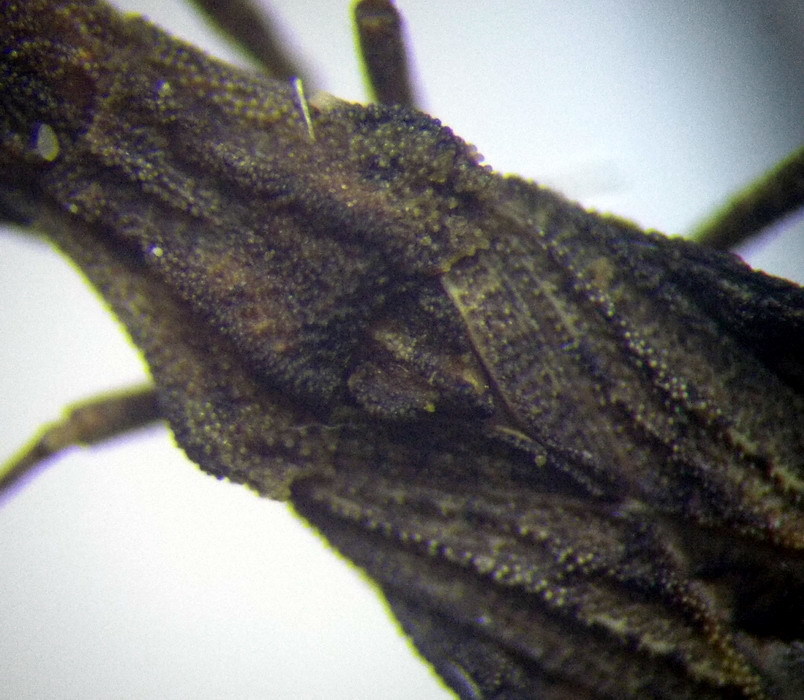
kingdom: Animalia
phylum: Arthropoda
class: Insecta
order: Hemiptera
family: Coreidae
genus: Spathocera
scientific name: Spathocera obscura
